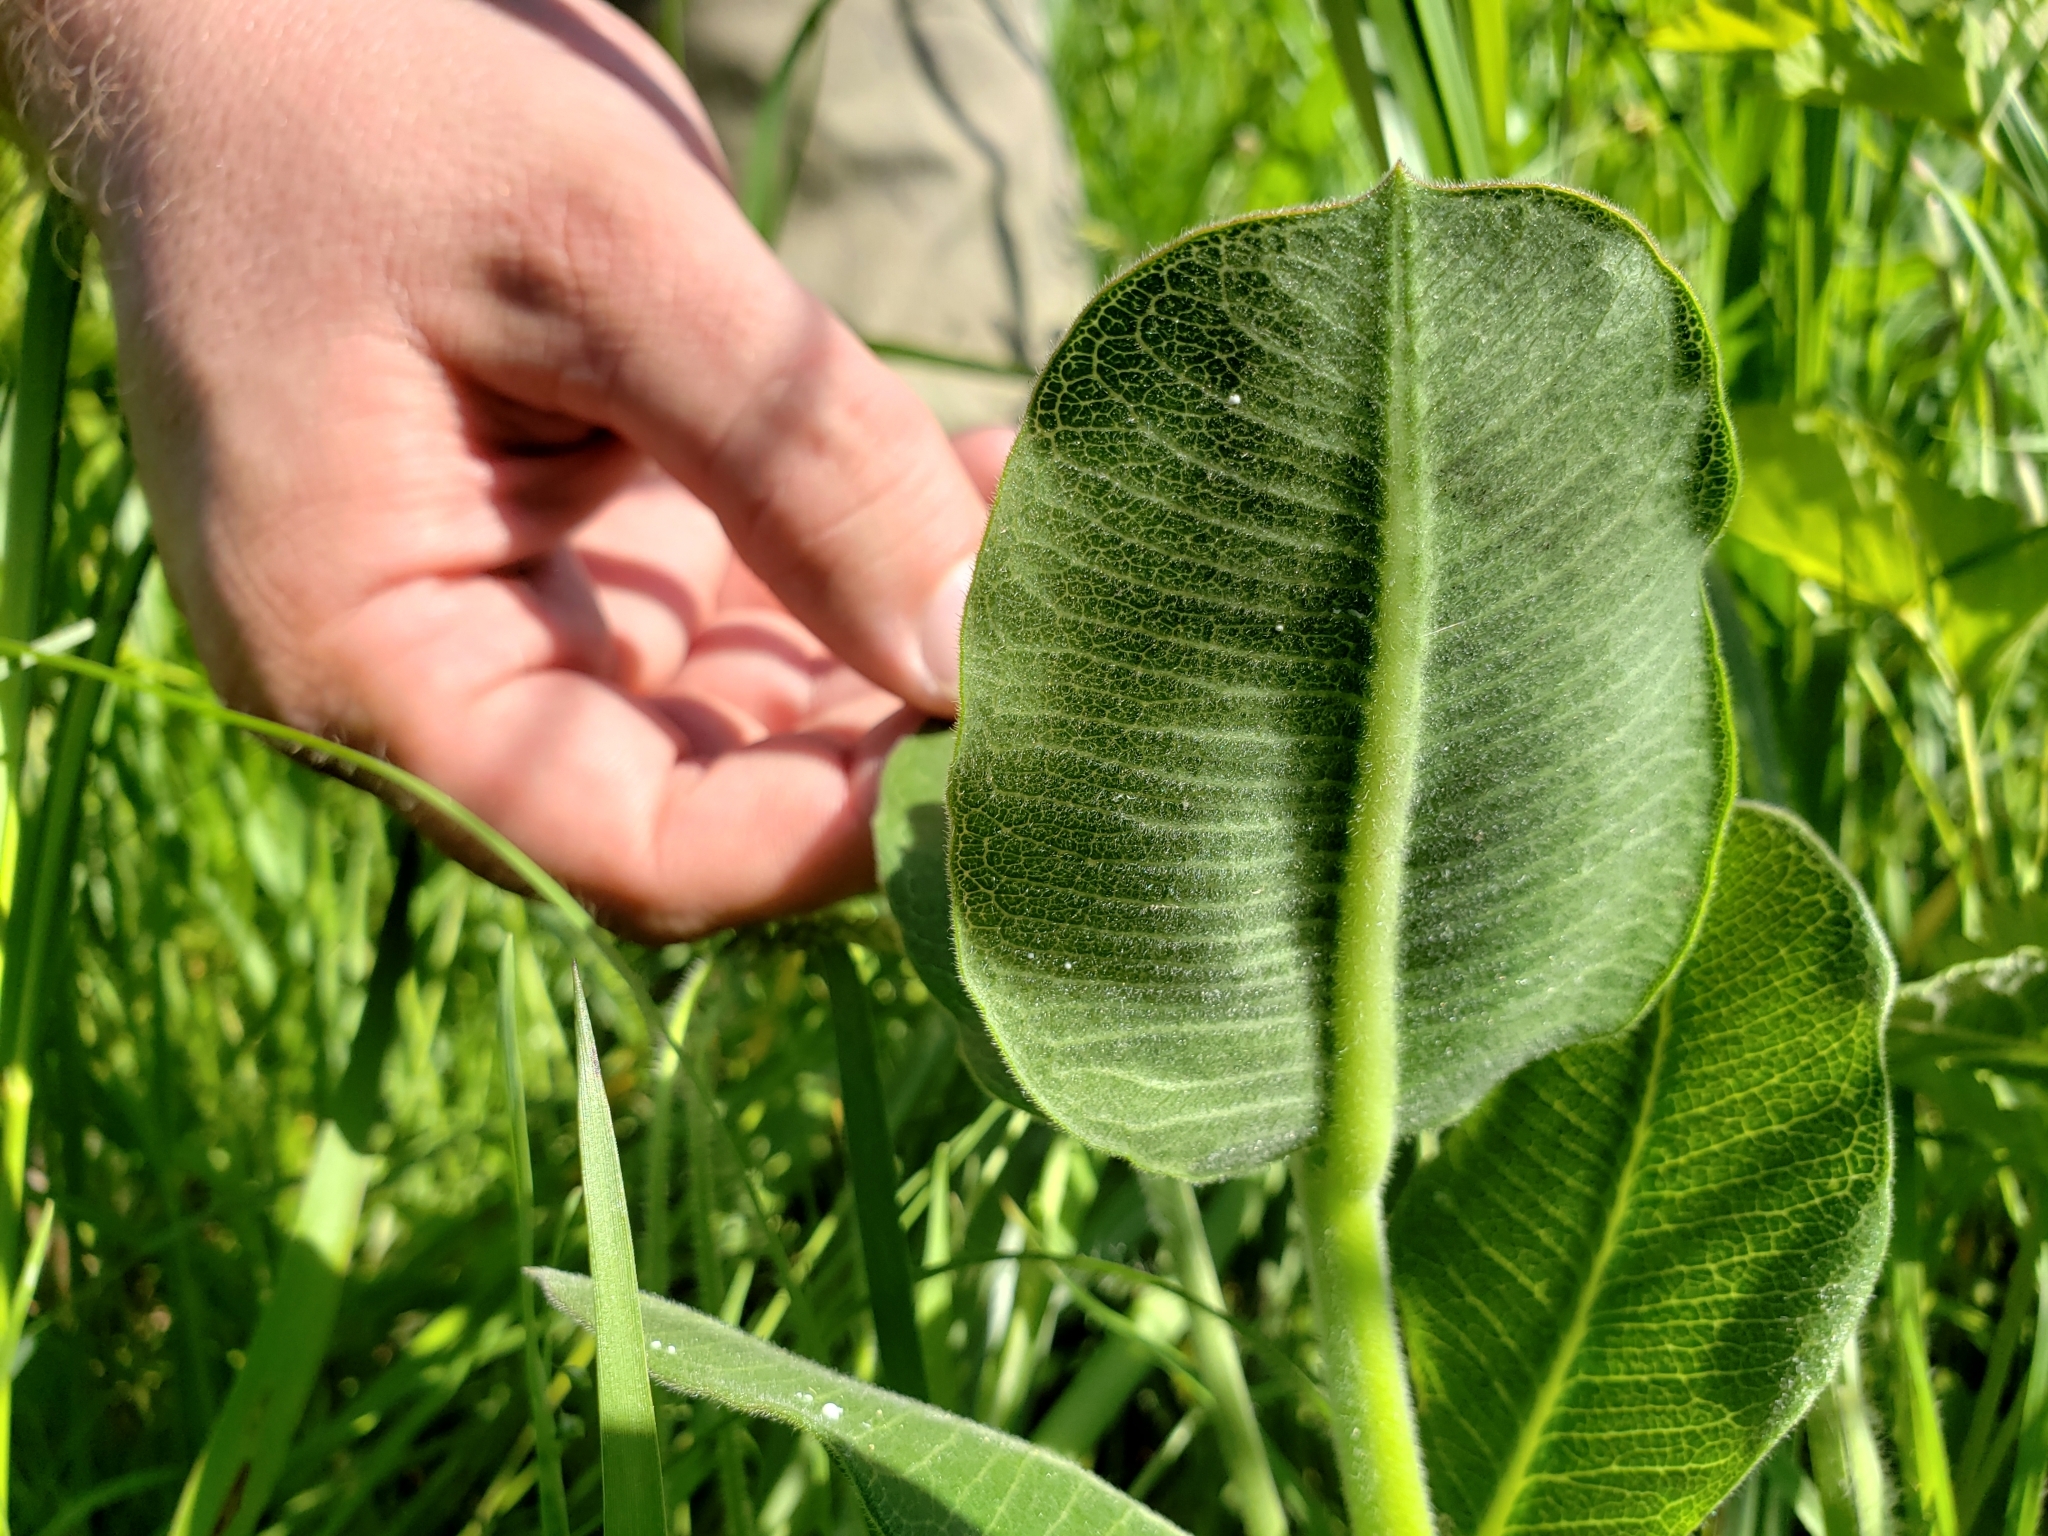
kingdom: Plantae
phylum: Tracheophyta
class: Magnoliopsida
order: Gentianales
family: Apocynaceae
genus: Asclepias
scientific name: Asclepias obovata
